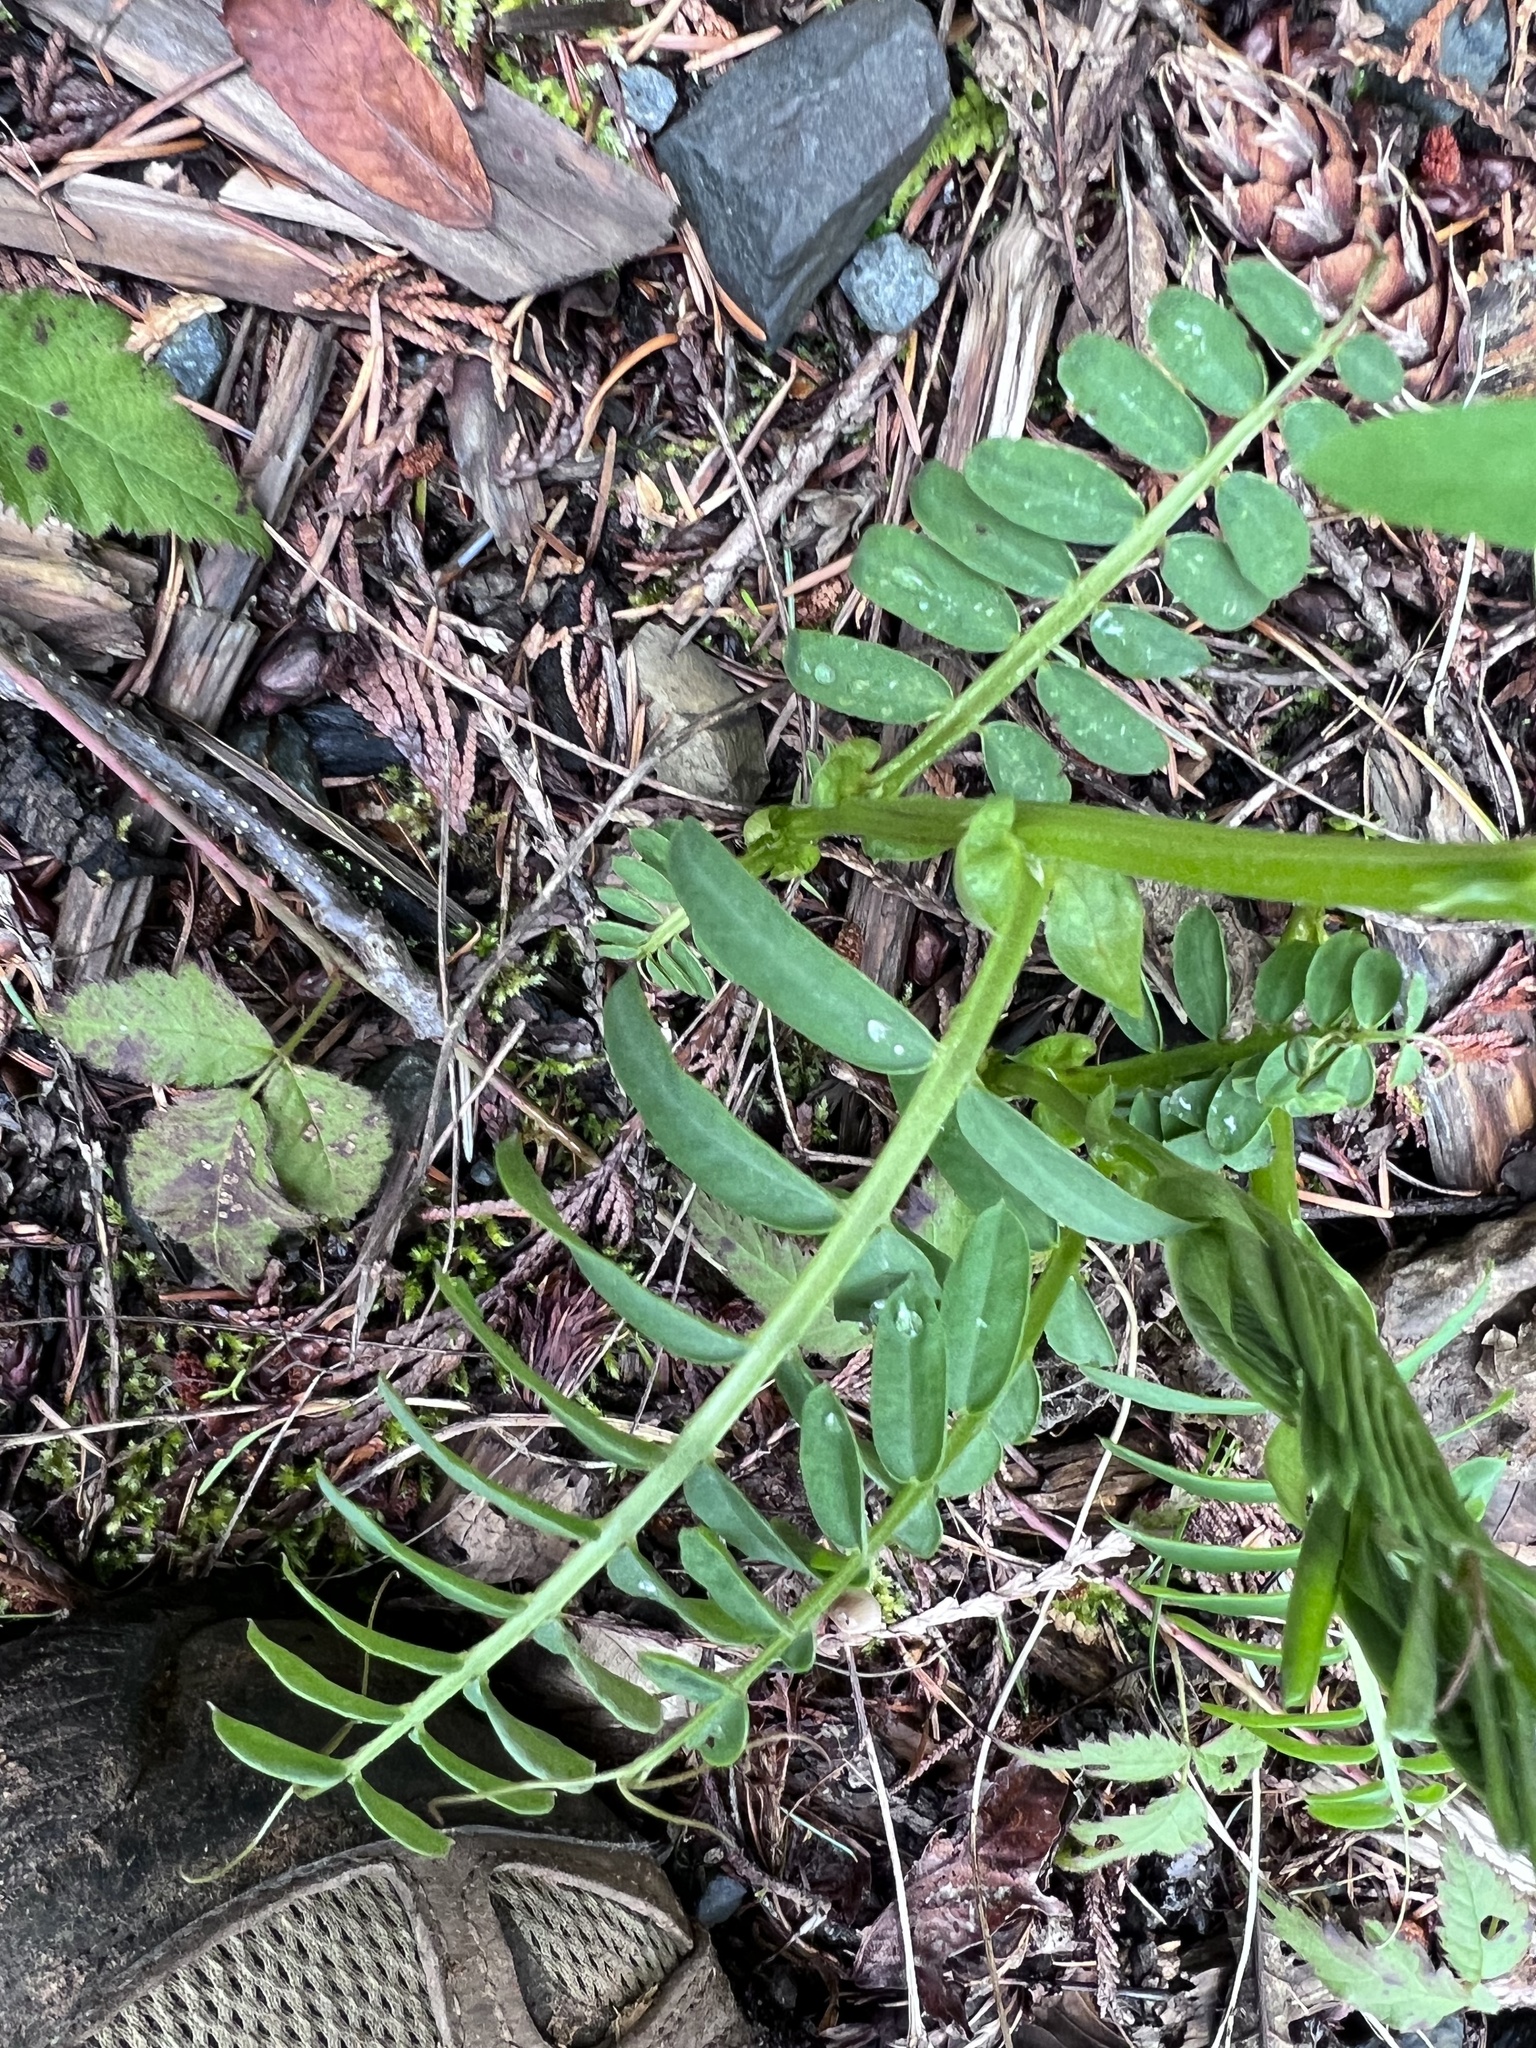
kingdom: Plantae
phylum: Tracheophyta
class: Magnoliopsida
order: Fabales
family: Fabaceae
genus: Vicia
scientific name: Vicia
